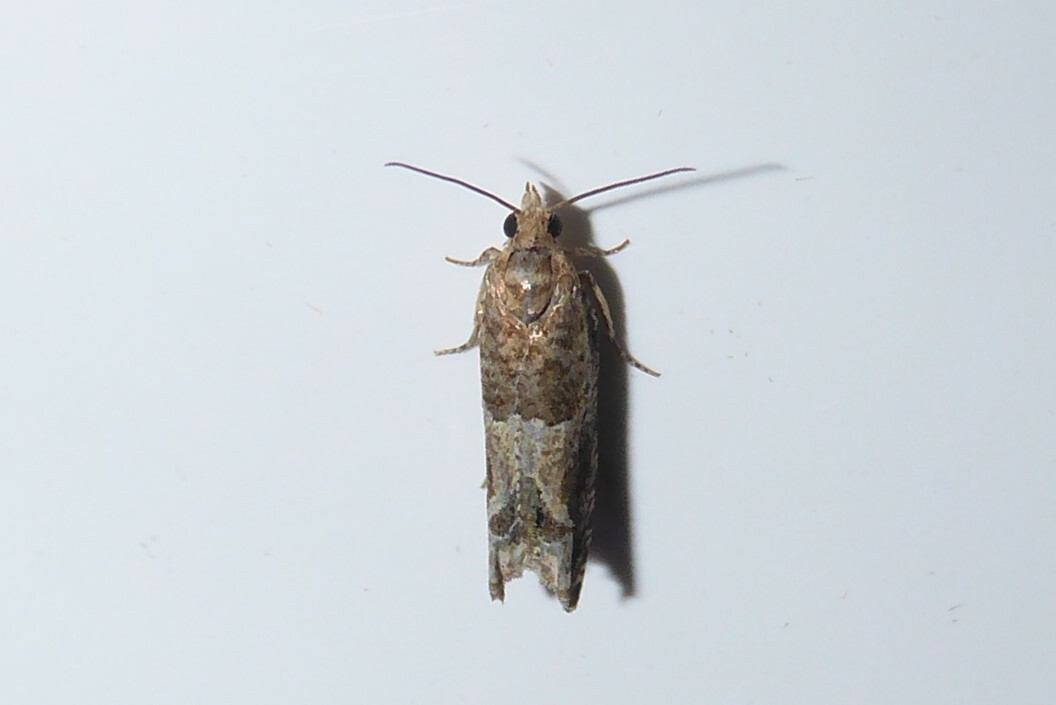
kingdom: Animalia
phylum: Arthropoda
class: Insecta
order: Lepidoptera
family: Tortricidae
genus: Crocidosema
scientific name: Crocidosema plebejana
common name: Southern bell
